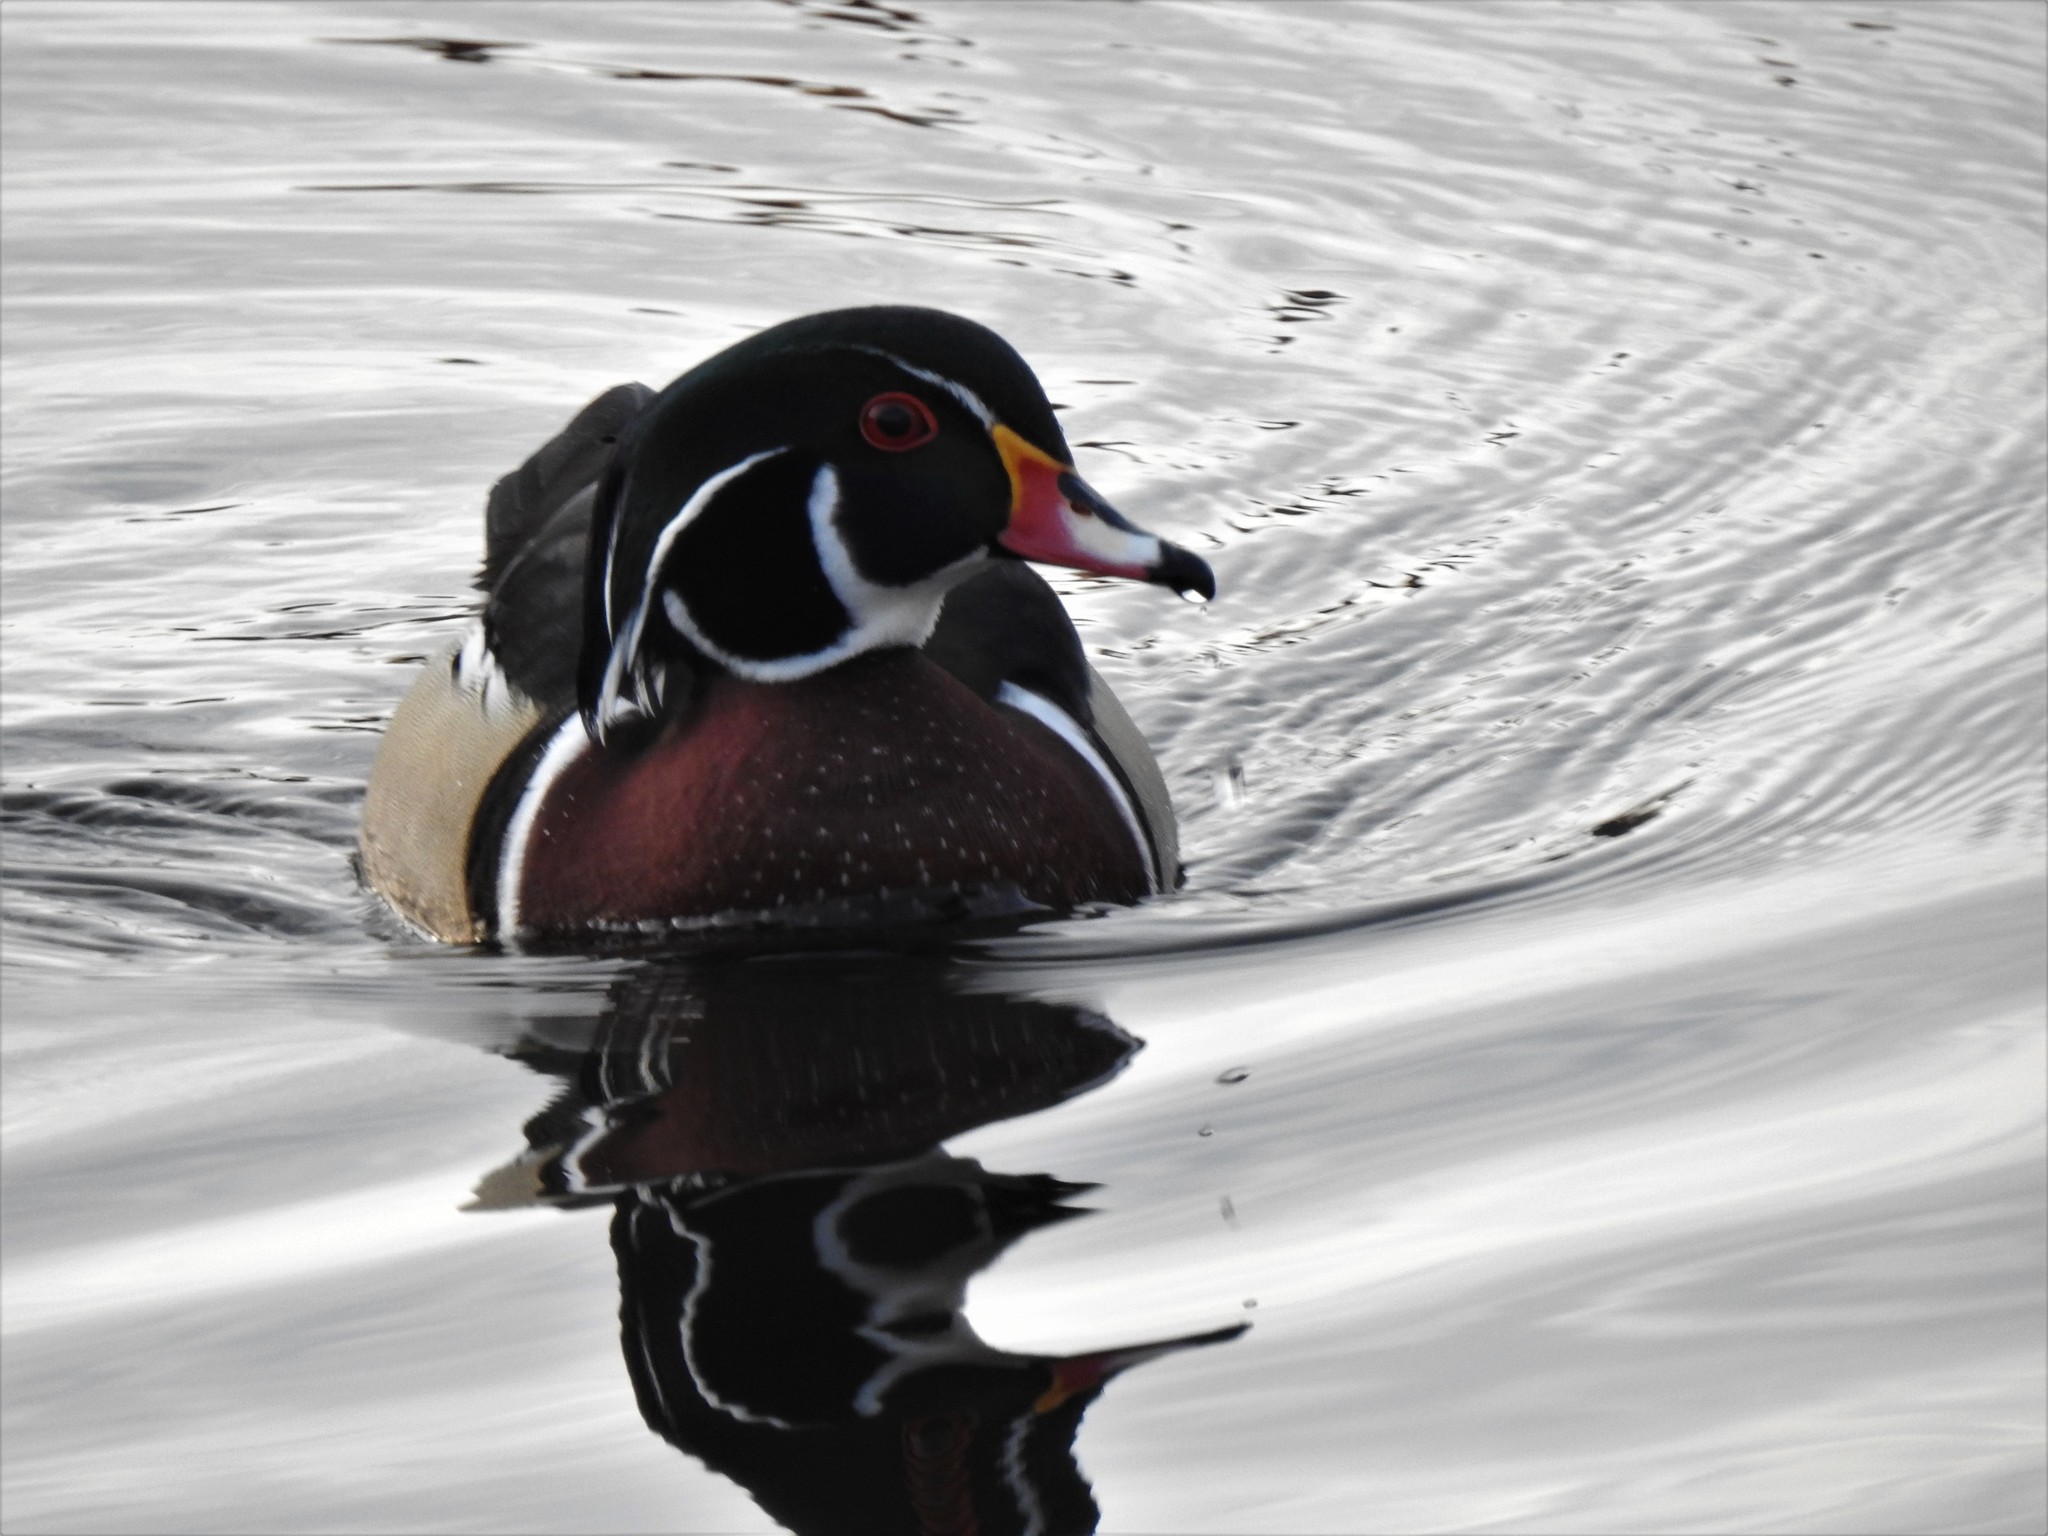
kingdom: Animalia
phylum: Chordata
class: Aves
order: Anseriformes
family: Anatidae
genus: Aix
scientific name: Aix sponsa
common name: Wood duck
